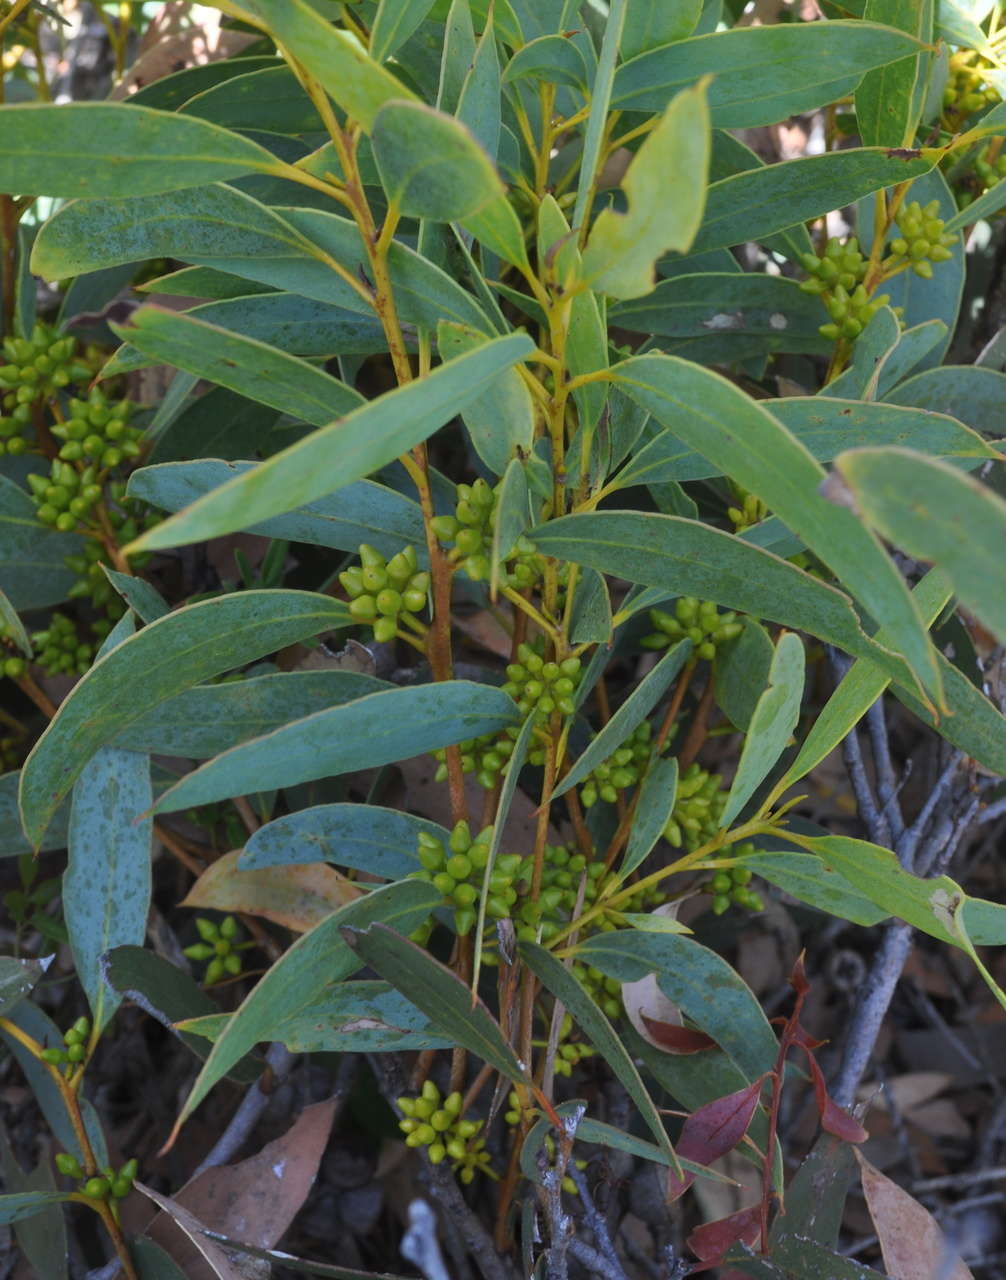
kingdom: Plantae
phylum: Tracheophyta
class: Magnoliopsida
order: Myrtales
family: Myrtaceae
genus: Eucalyptus
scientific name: Eucalyptus diversifolia
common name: Coastal white mallee
